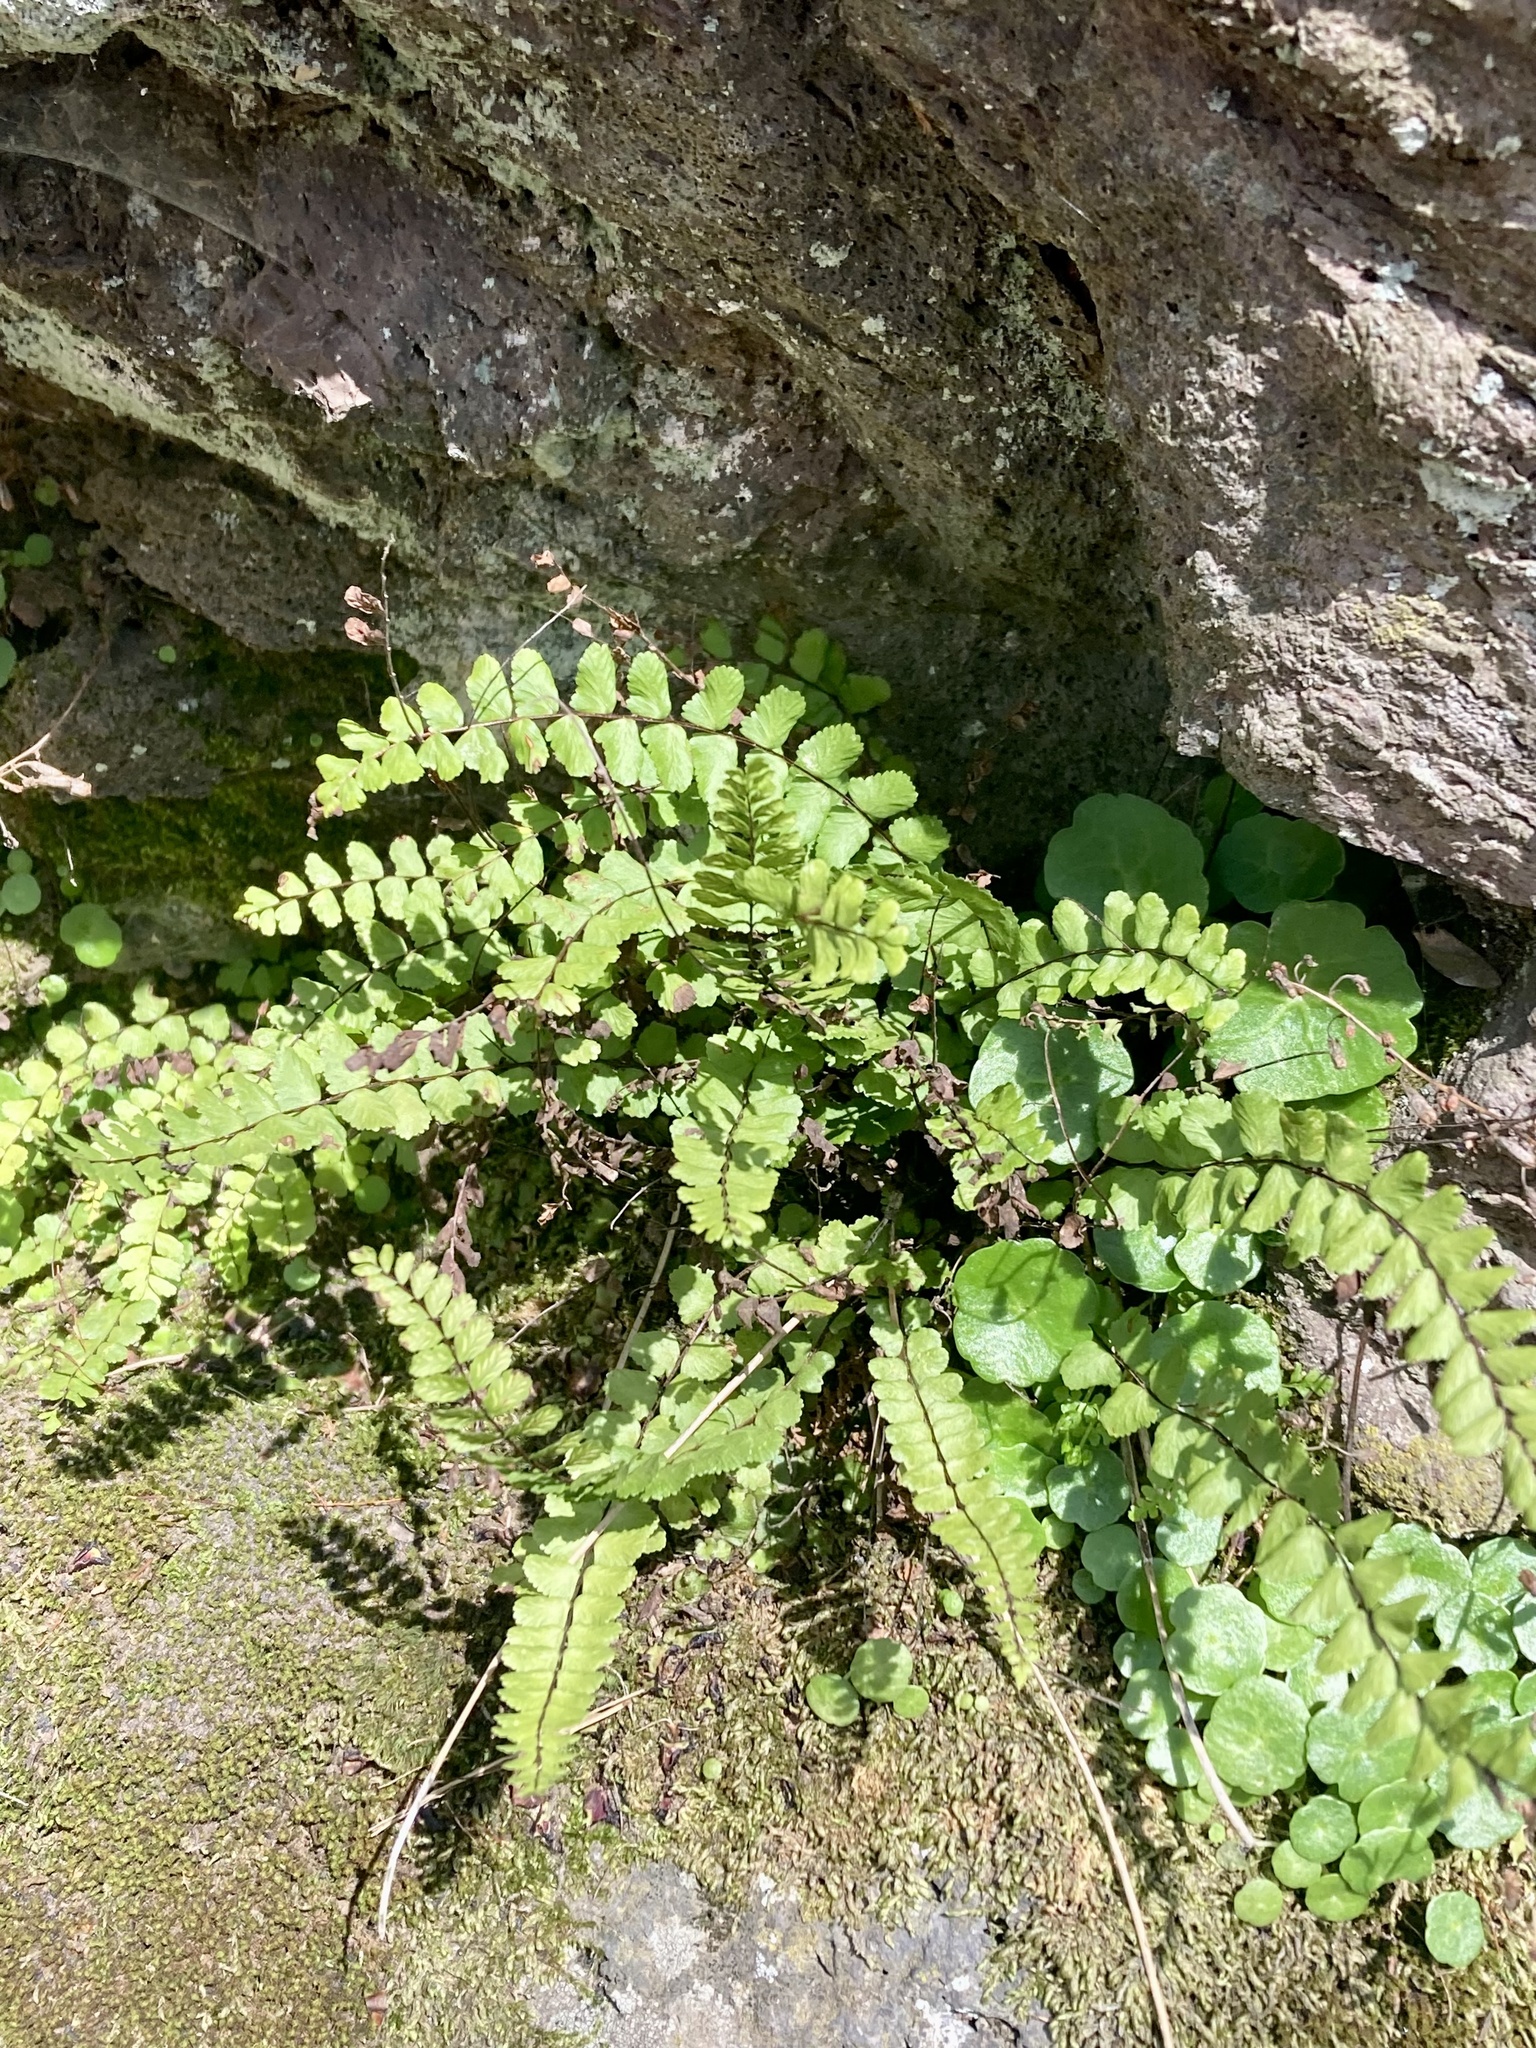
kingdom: Plantae
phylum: Tracheophyta
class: Polypodiopsida
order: Polypodiales
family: Aspleniaceae
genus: Asplenium
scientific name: Asplenium trichomanes
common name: Maidenhair spleenwort
